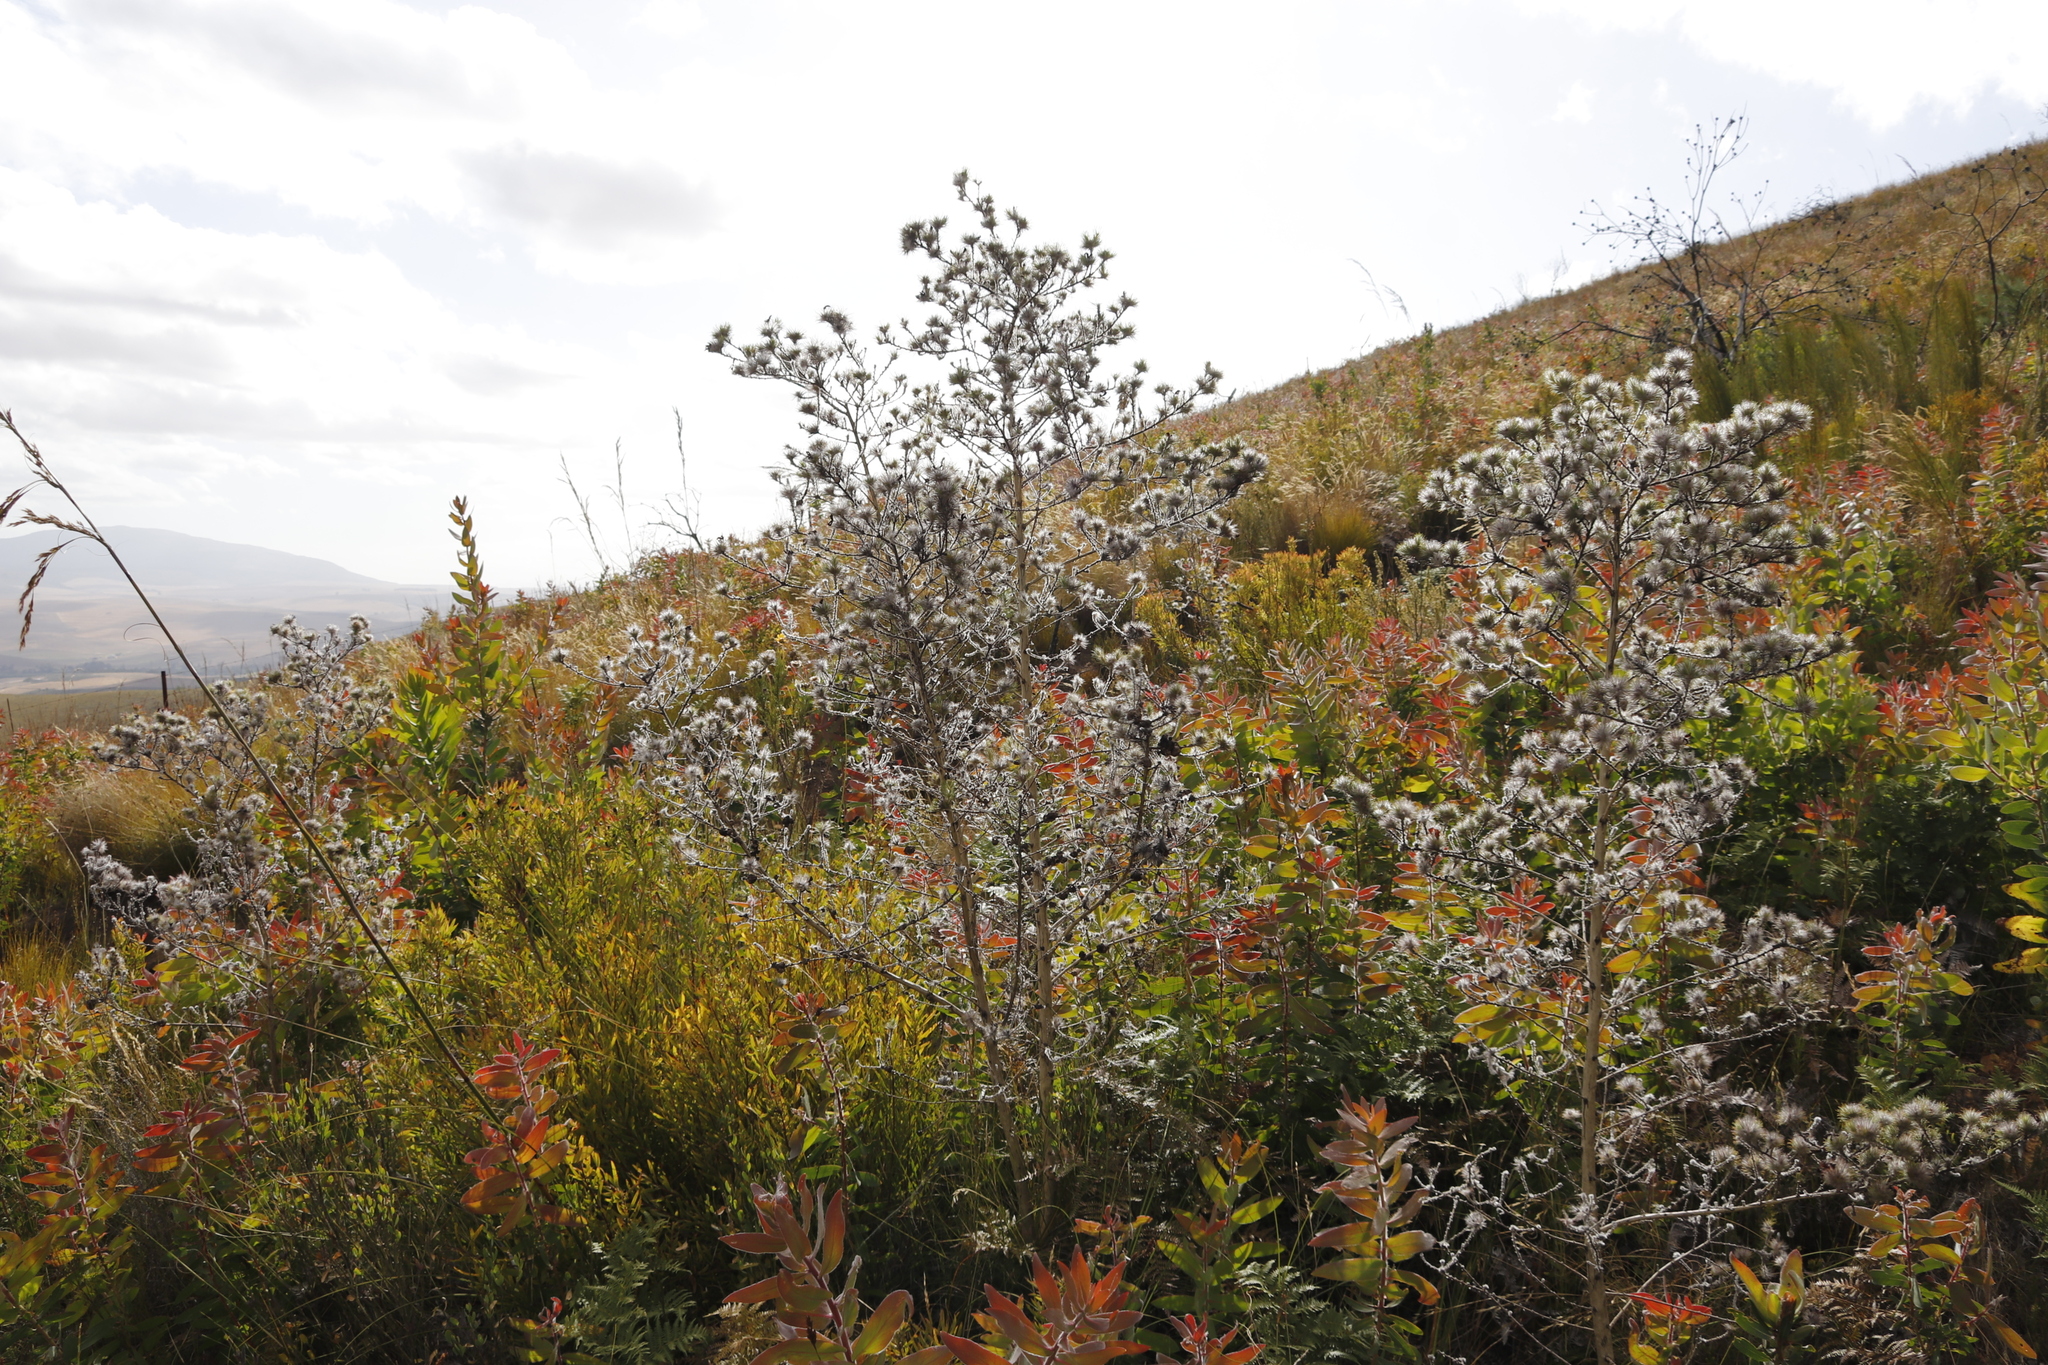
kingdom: Plantae
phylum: Tracheophyta
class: Magnoliopsida
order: Fabales
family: Fabaceae
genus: Aspalathus
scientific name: Aspalathus rubiginosa
